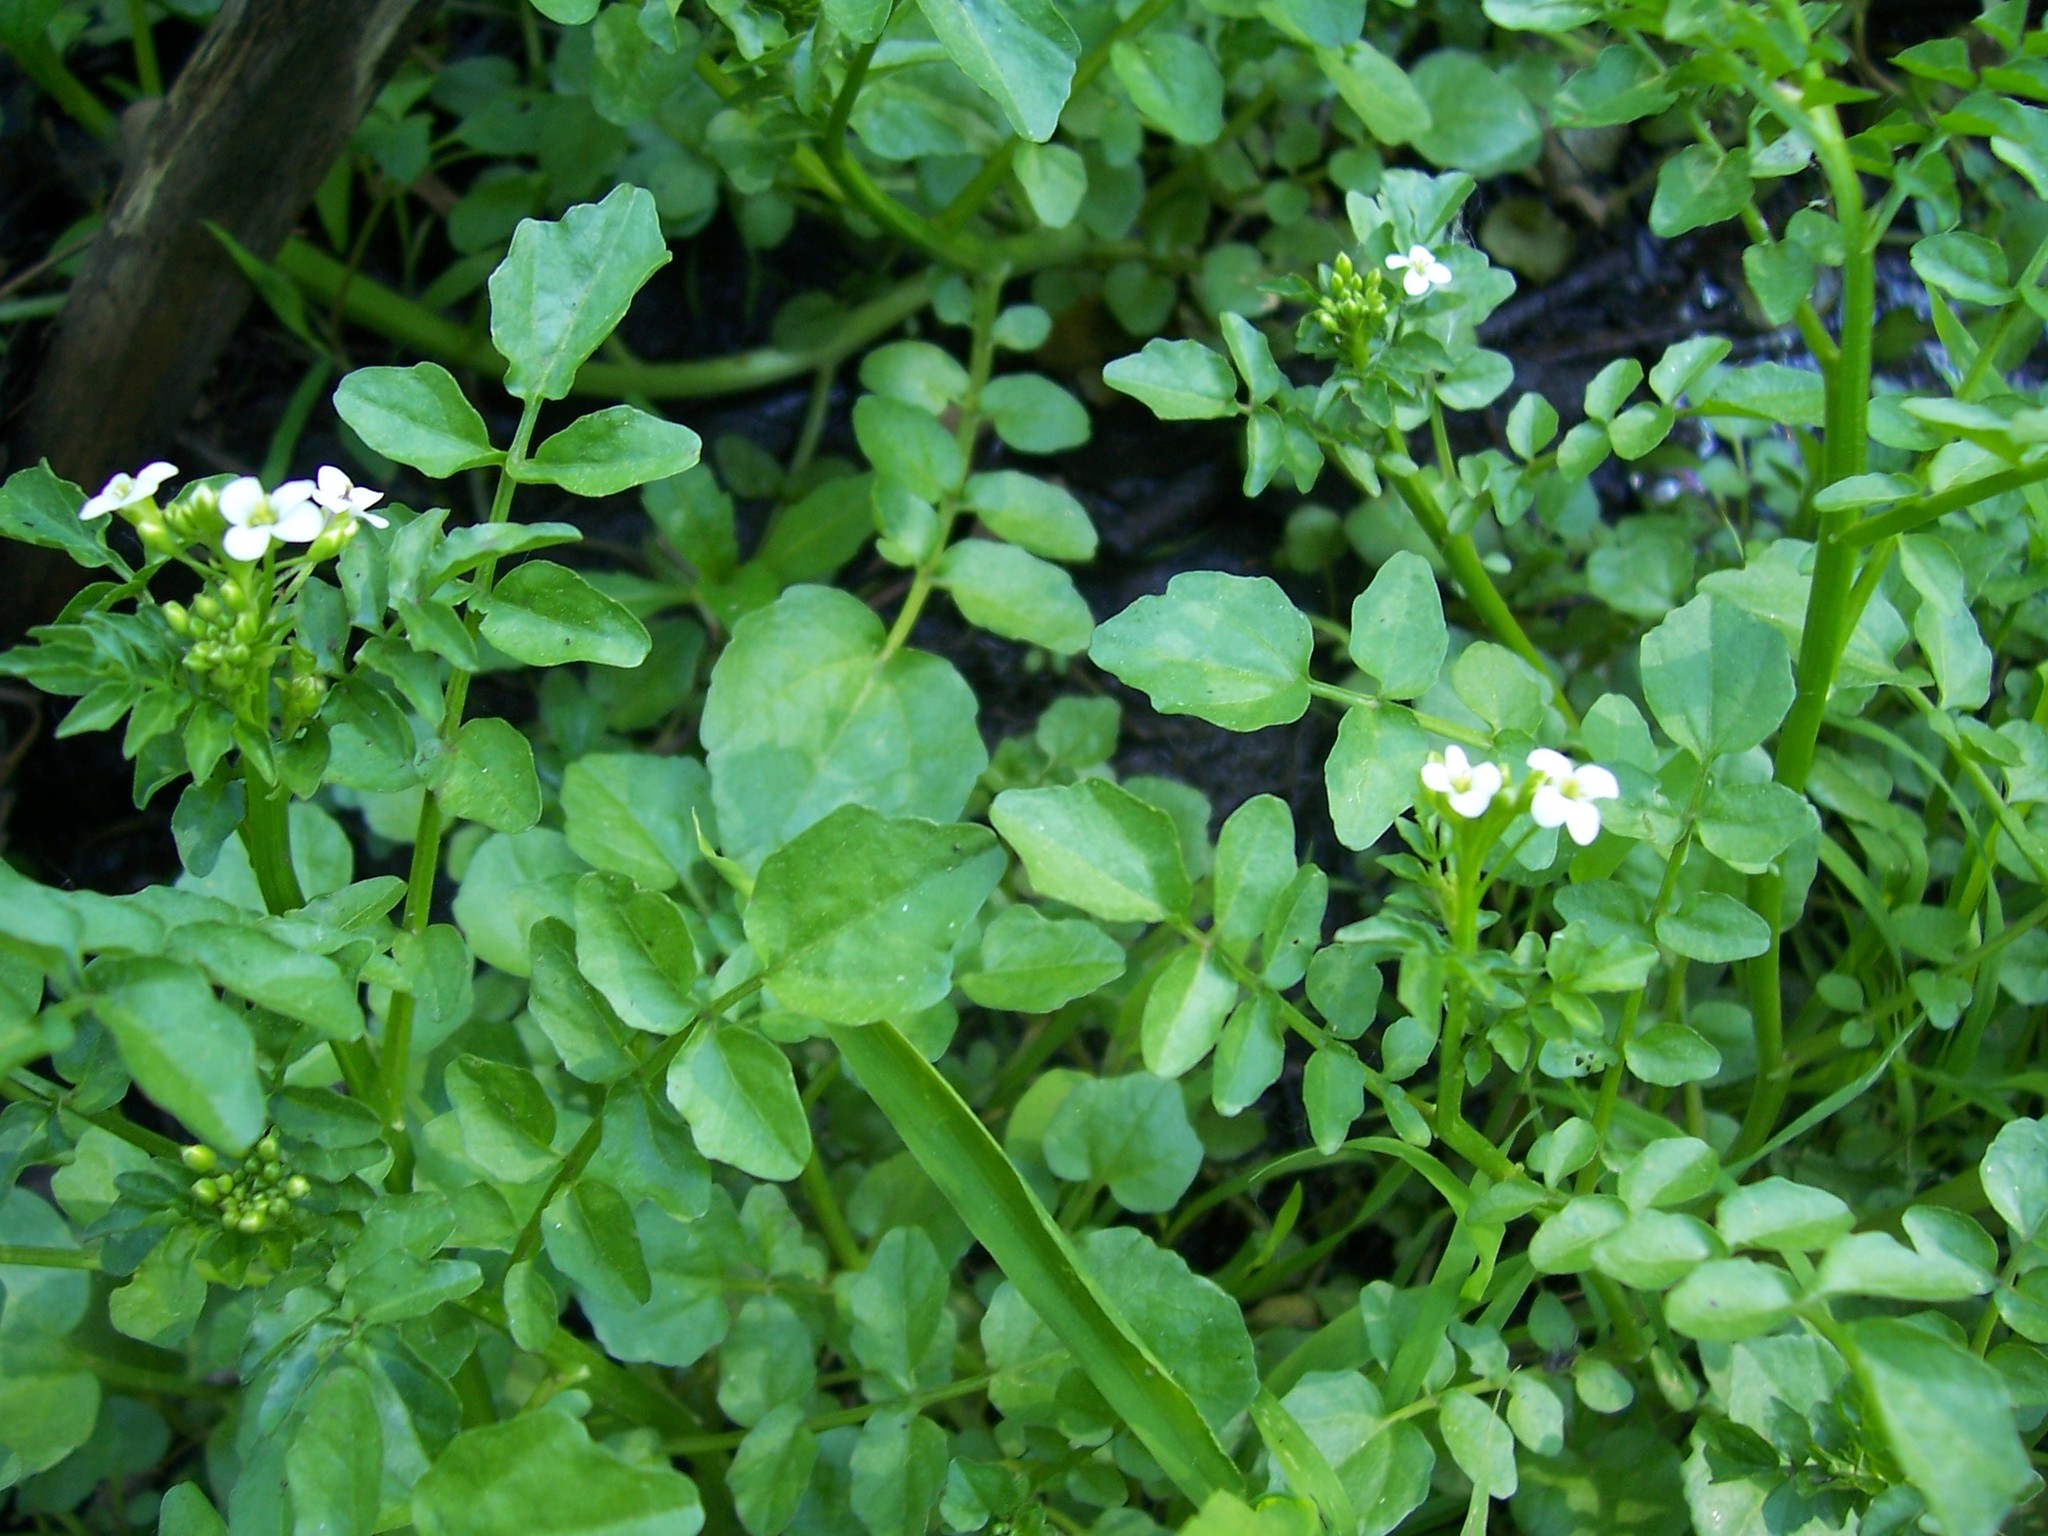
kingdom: Plantae
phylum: Tracheophyta
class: Magnoliopsida
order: Brassicales
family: Brassicaceae
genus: Nasturtium
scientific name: Nasturtium officinale
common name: Watercress
